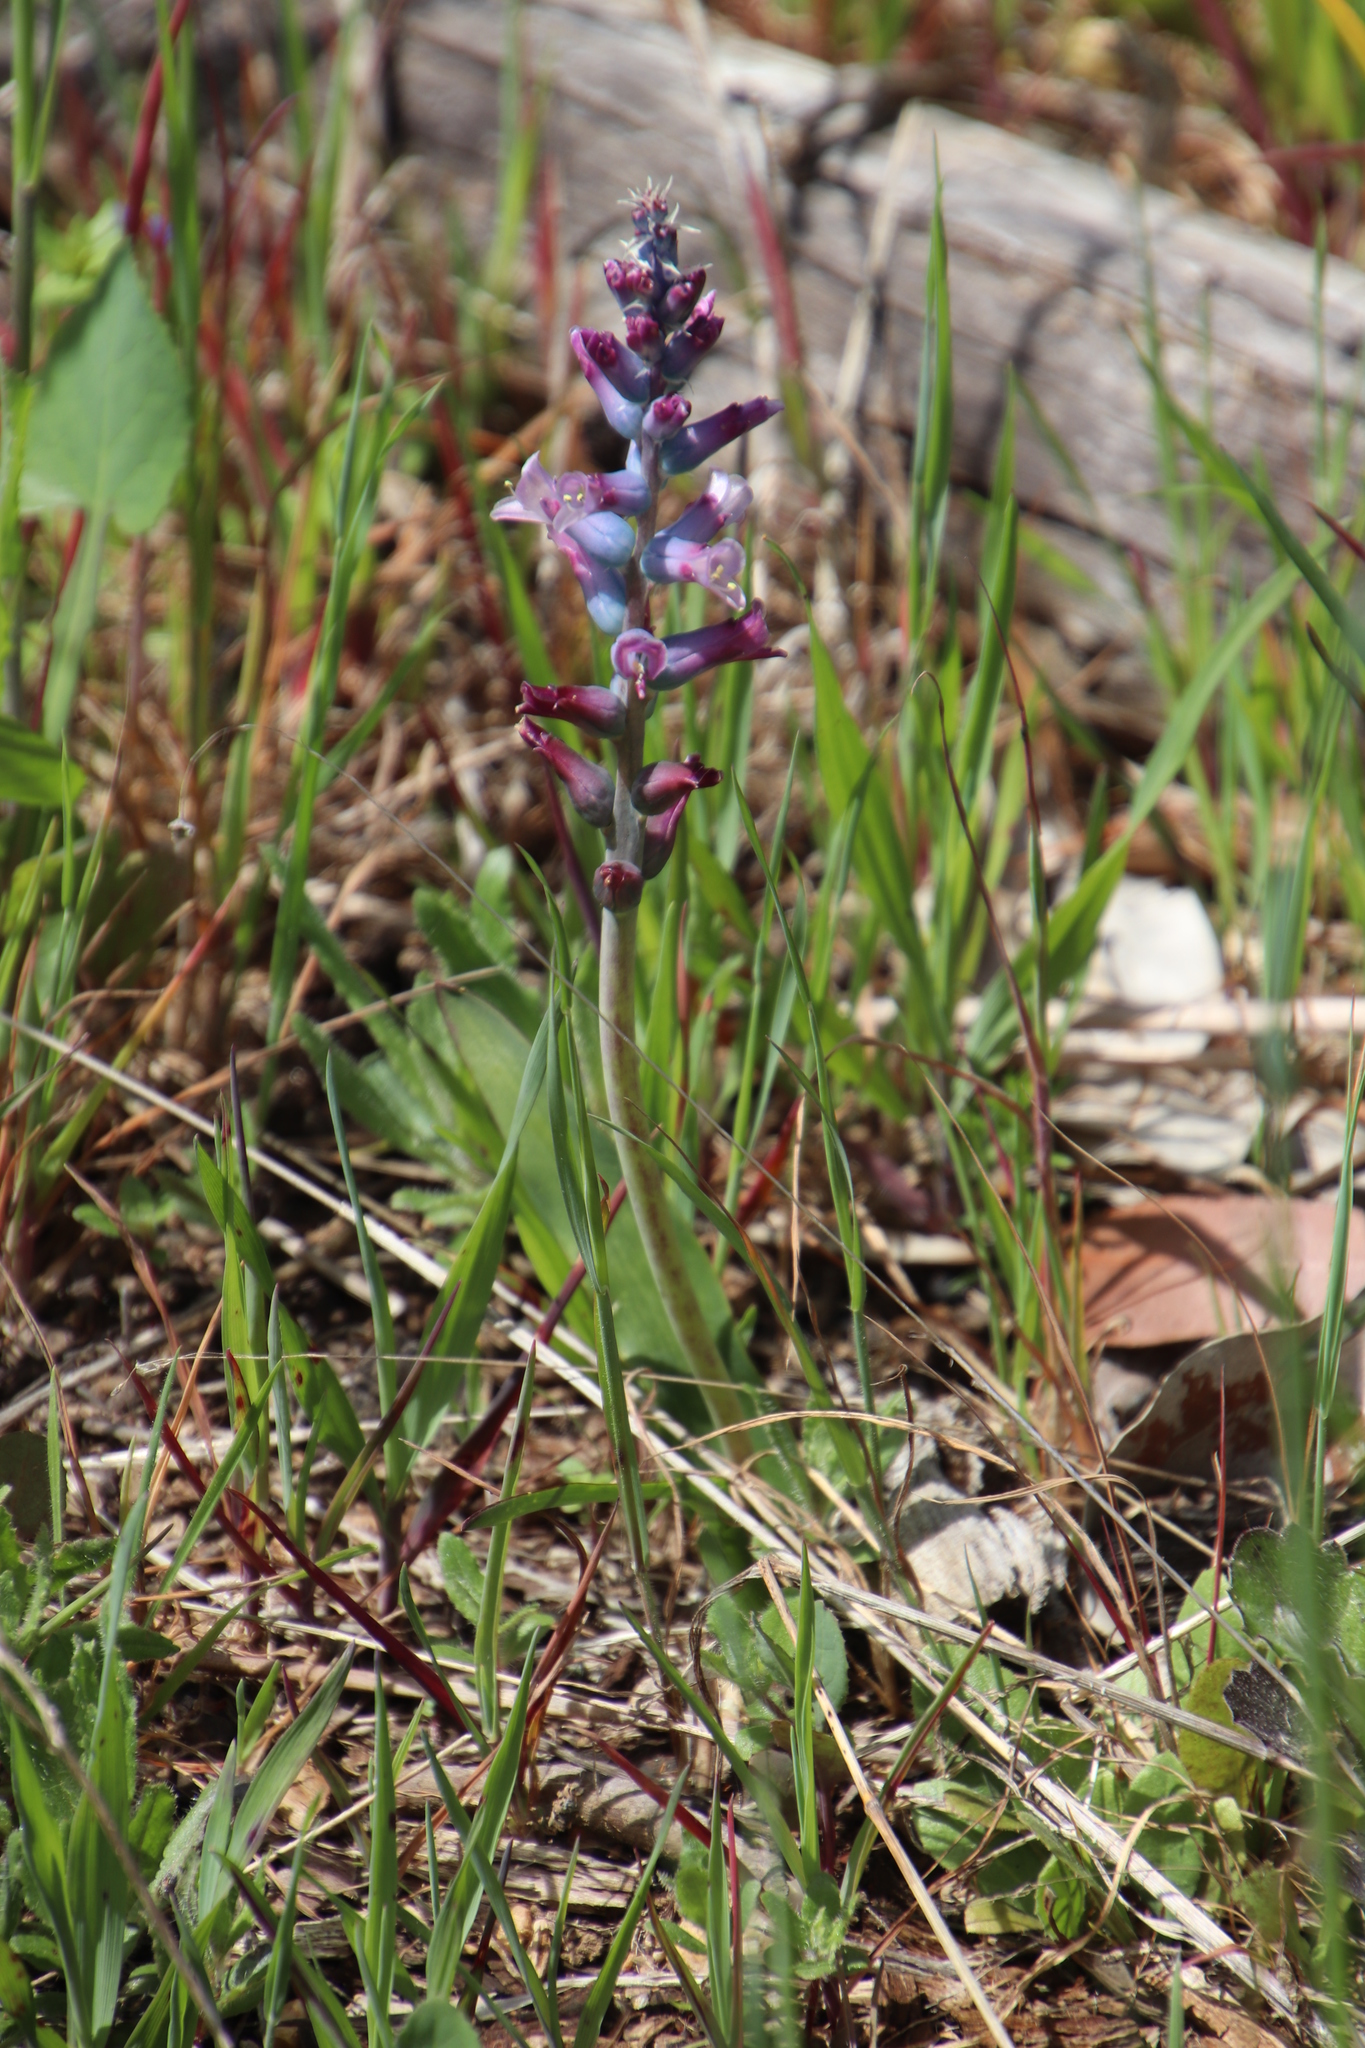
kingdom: Plantae
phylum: Tracheophyta
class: Liliopsida
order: Asparagales
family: Asparagaceae
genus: Lachenalia
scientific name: Lachenalia glaucina
